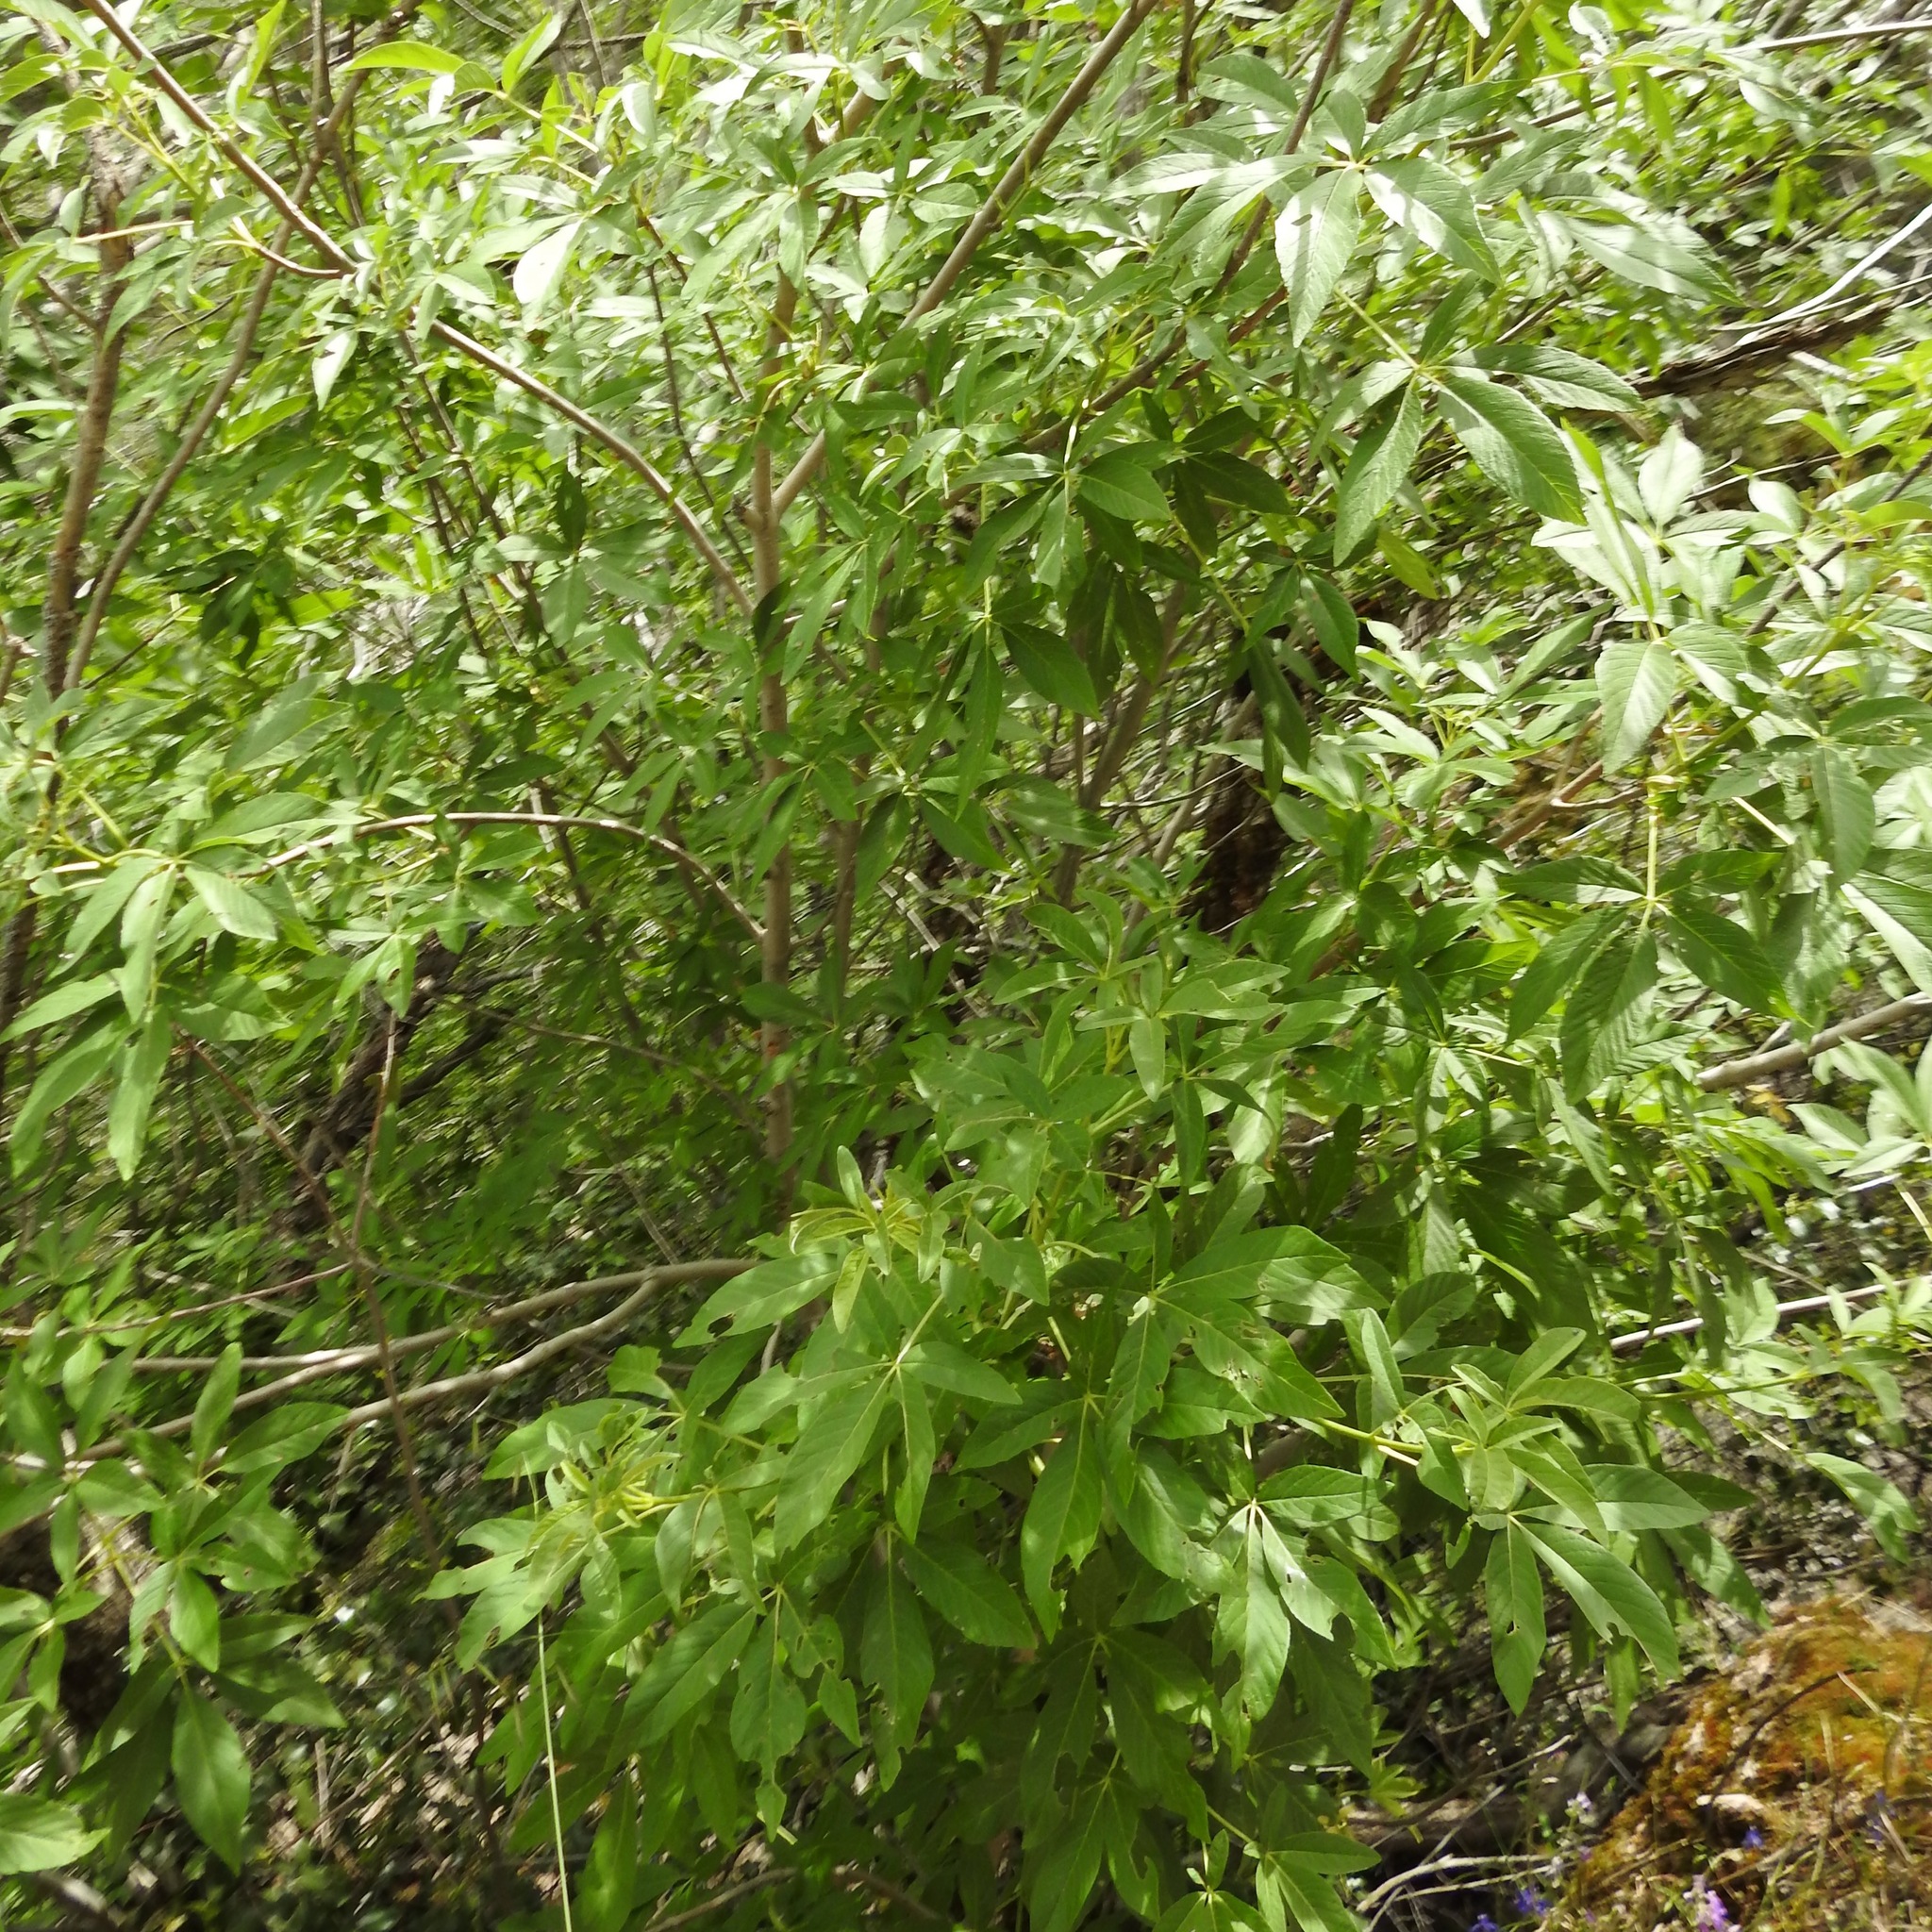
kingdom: Plantae
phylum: Tracheophyta
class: Magnoliopsida
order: Sapindales
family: Sapindaceae
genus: Aesculus
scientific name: Aesculus californica
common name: California buckeye
